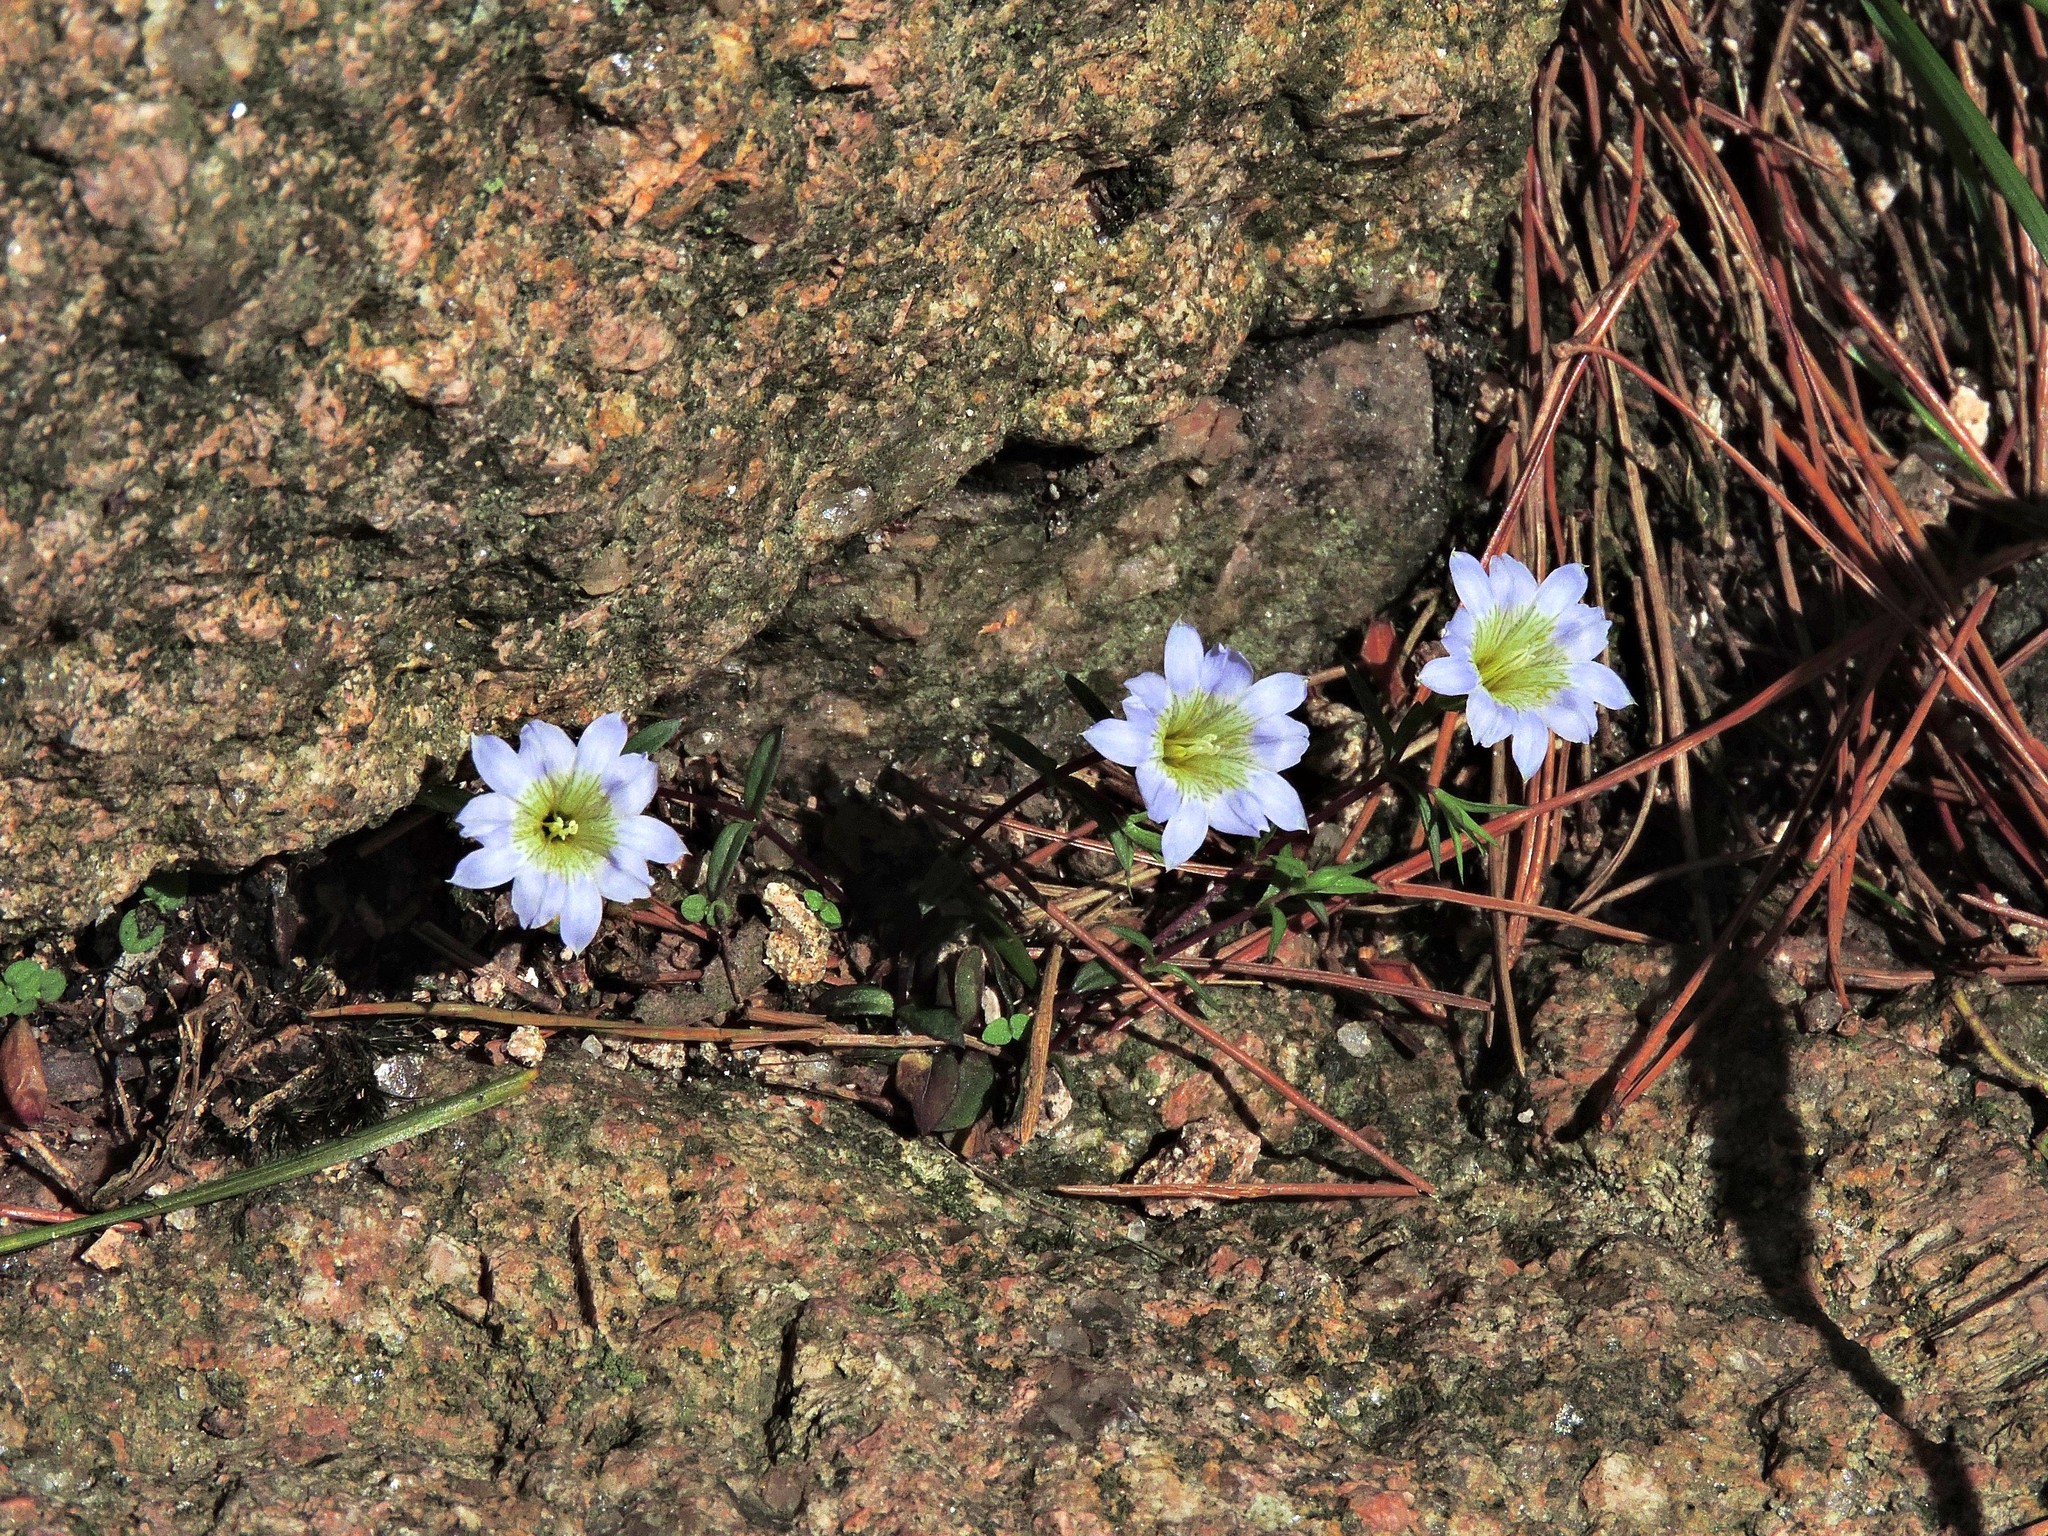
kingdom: Plantae
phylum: Tracheophyta
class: Magnoliopsida
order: Gentianales
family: Gentianaceae
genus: Gentiana
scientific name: Gentiana rubicunda
